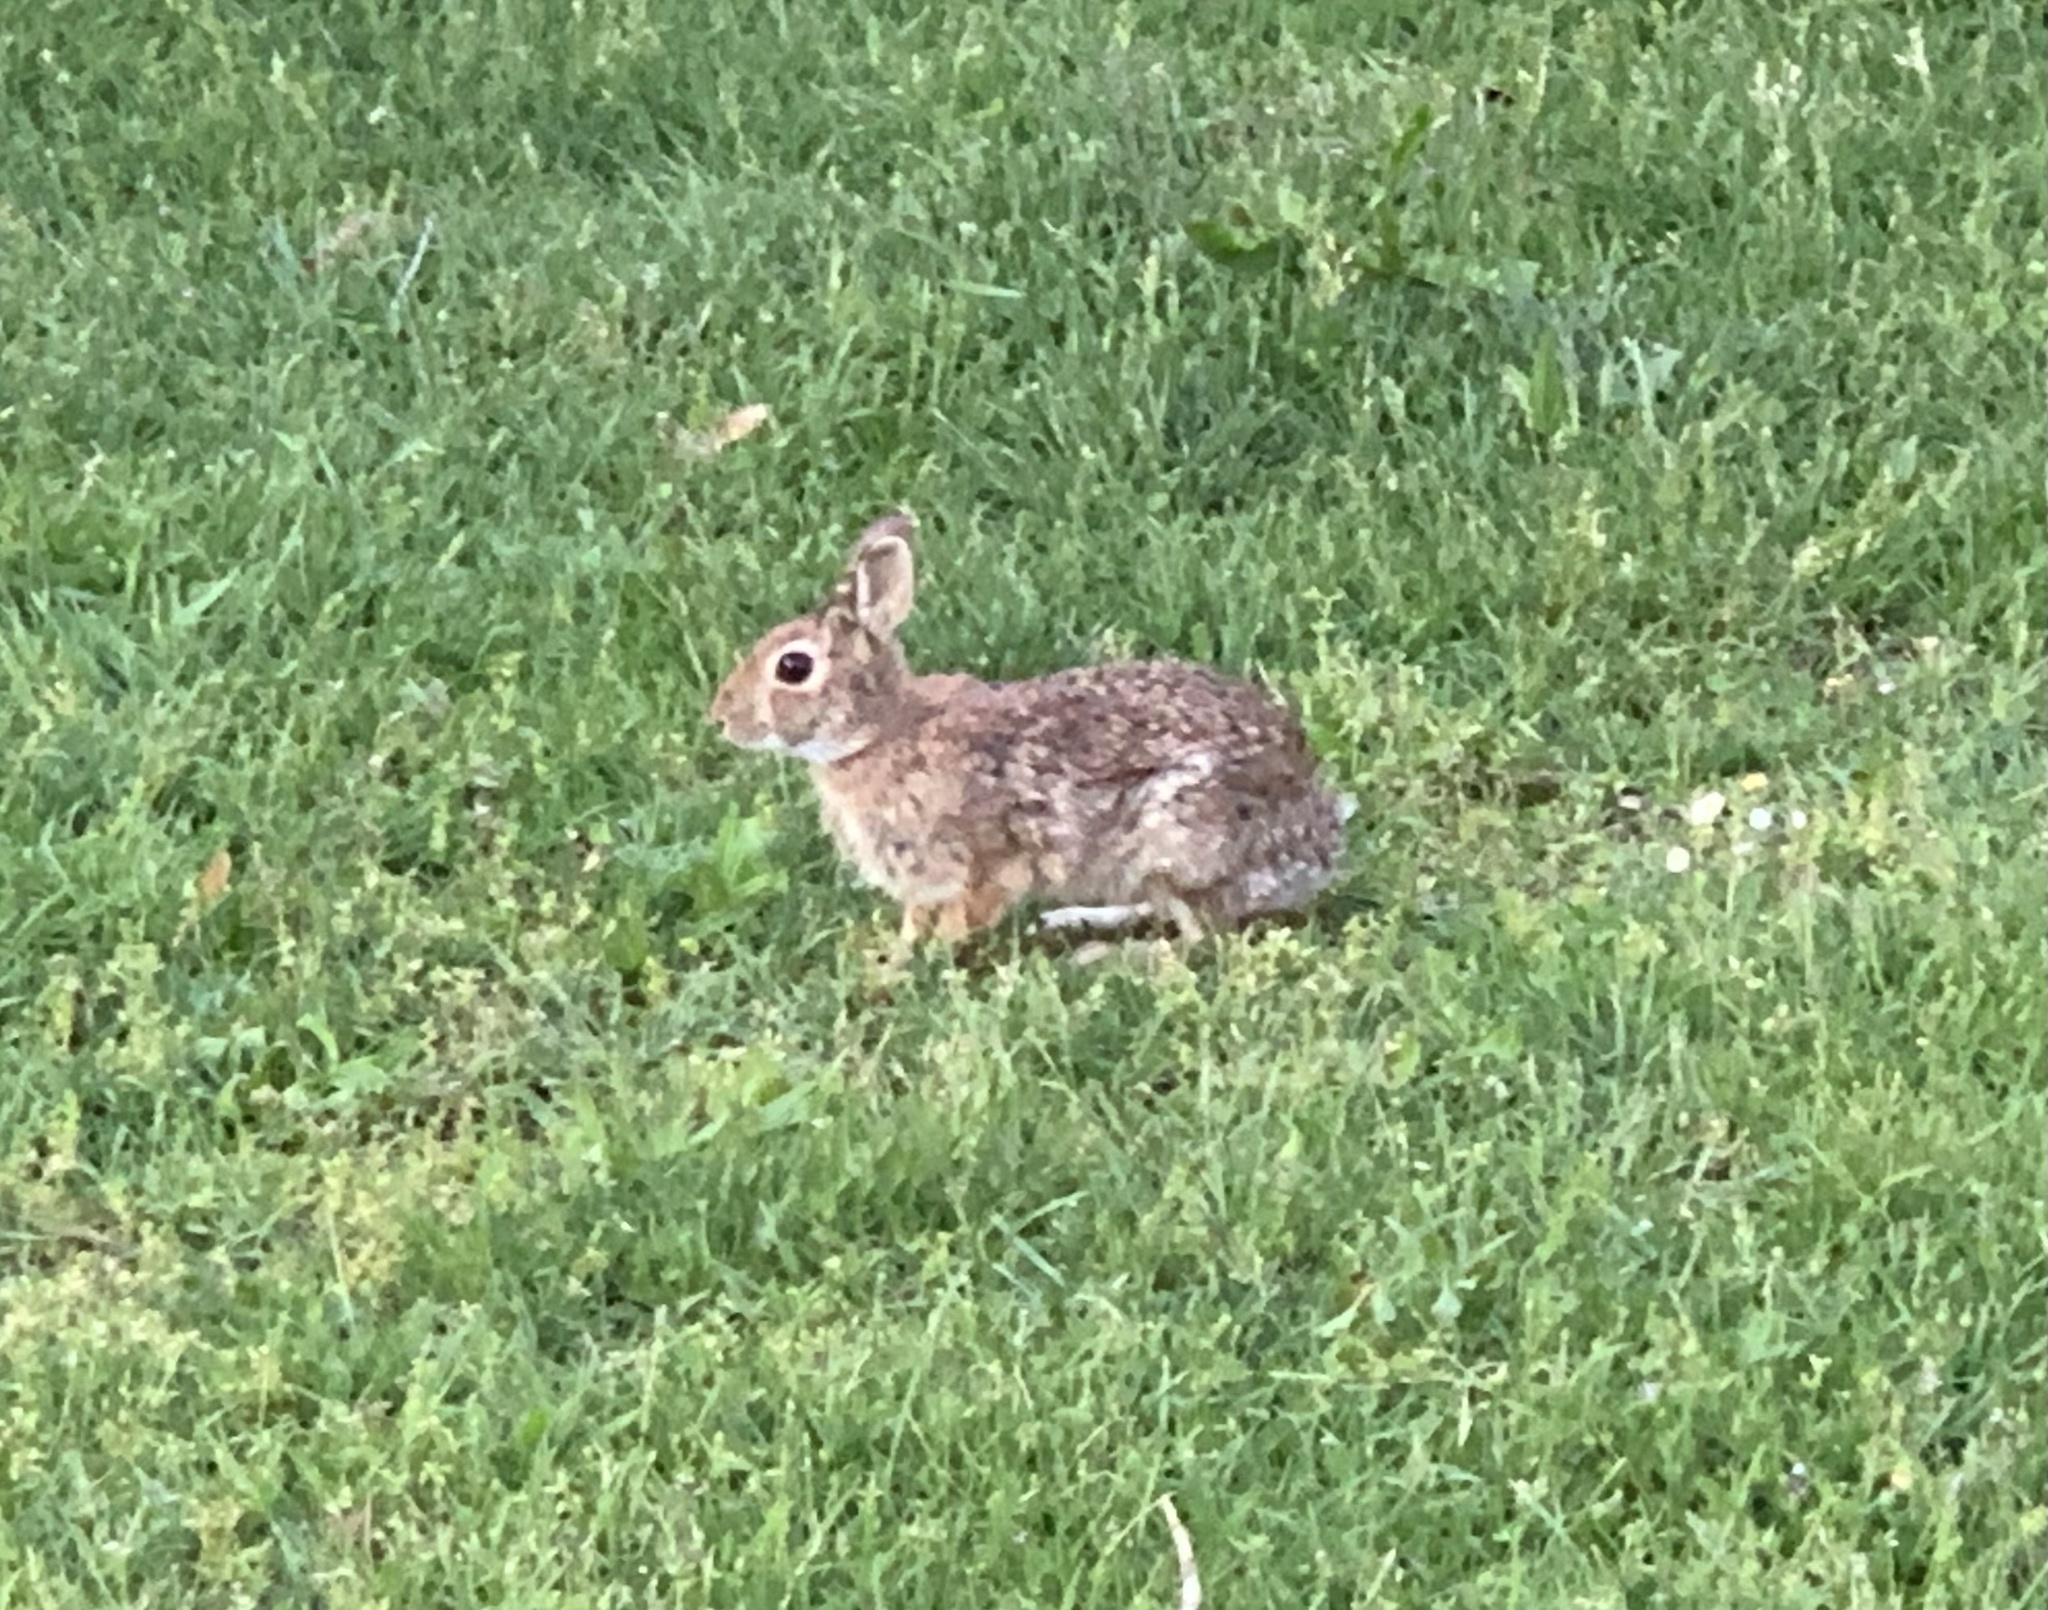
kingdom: Animalia
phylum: Chordata
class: Mammalia
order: Lagomorpha
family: Leporidae
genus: Sylvilagus
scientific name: Sylvilagus floridanus
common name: Eastern cottontail
